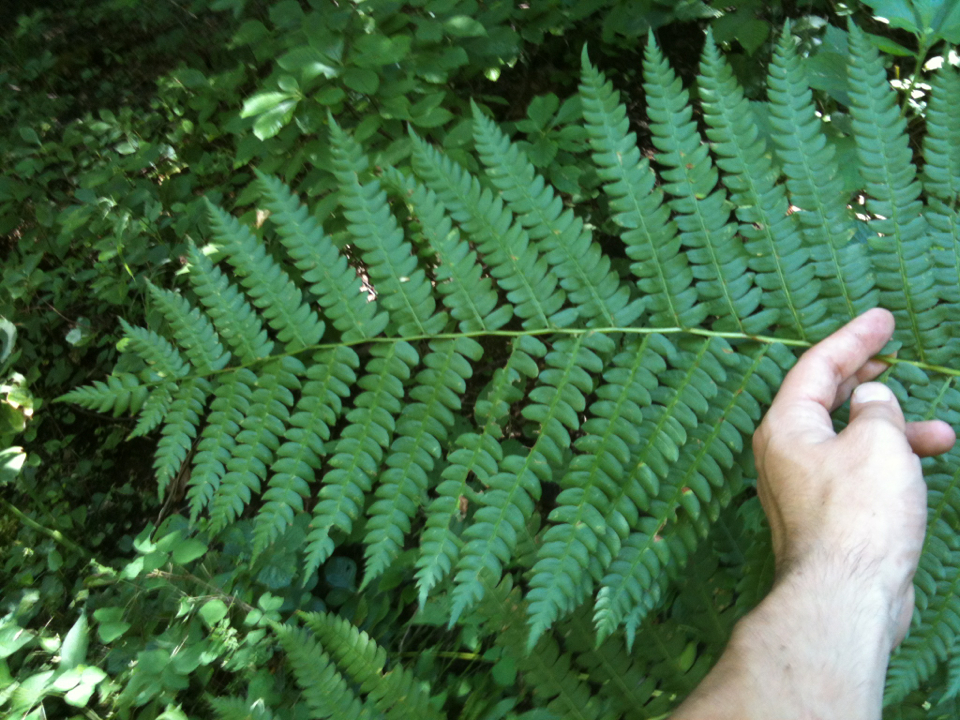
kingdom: Plantae
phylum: Tracheophyta
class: Polypodiopsida
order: Osmundales
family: Osmundaceae
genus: Osmundastrum
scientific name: Osmundastrum cinnamomeum
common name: Cinnamon fern
